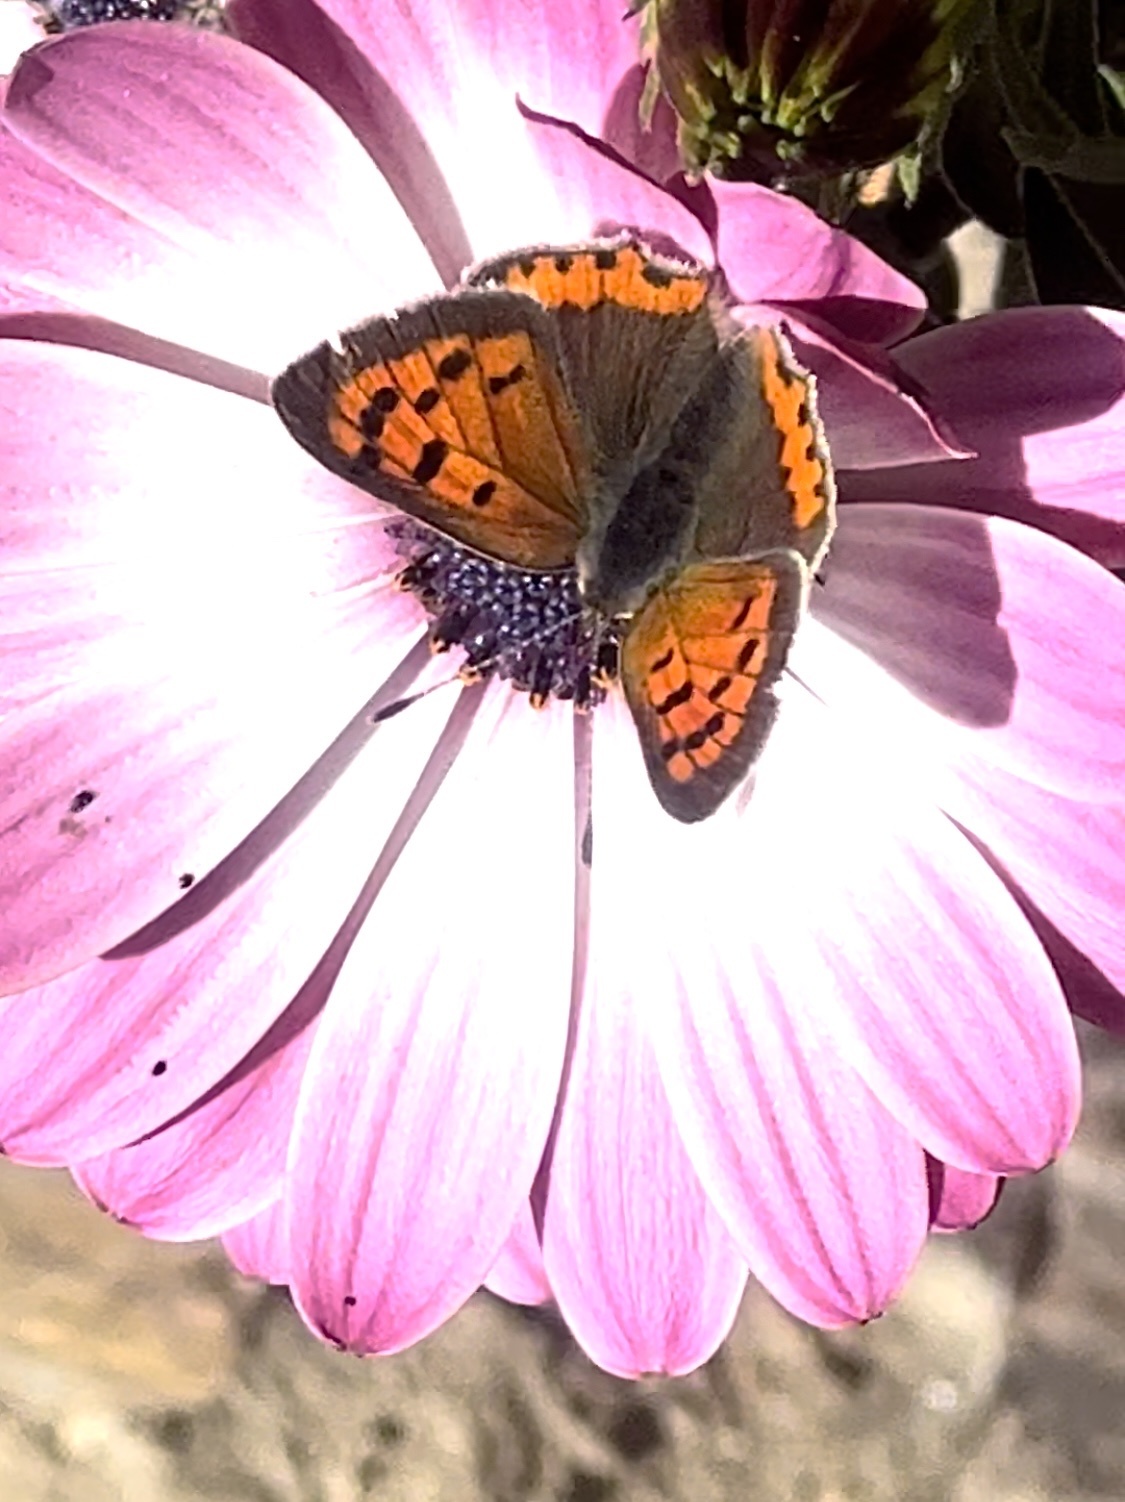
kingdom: Animalia
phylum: Arthropoda
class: Insecta
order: Lepidoptera
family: Lycaenidae
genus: Lycaena
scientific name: Lycaena phlaeas
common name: Small copper
